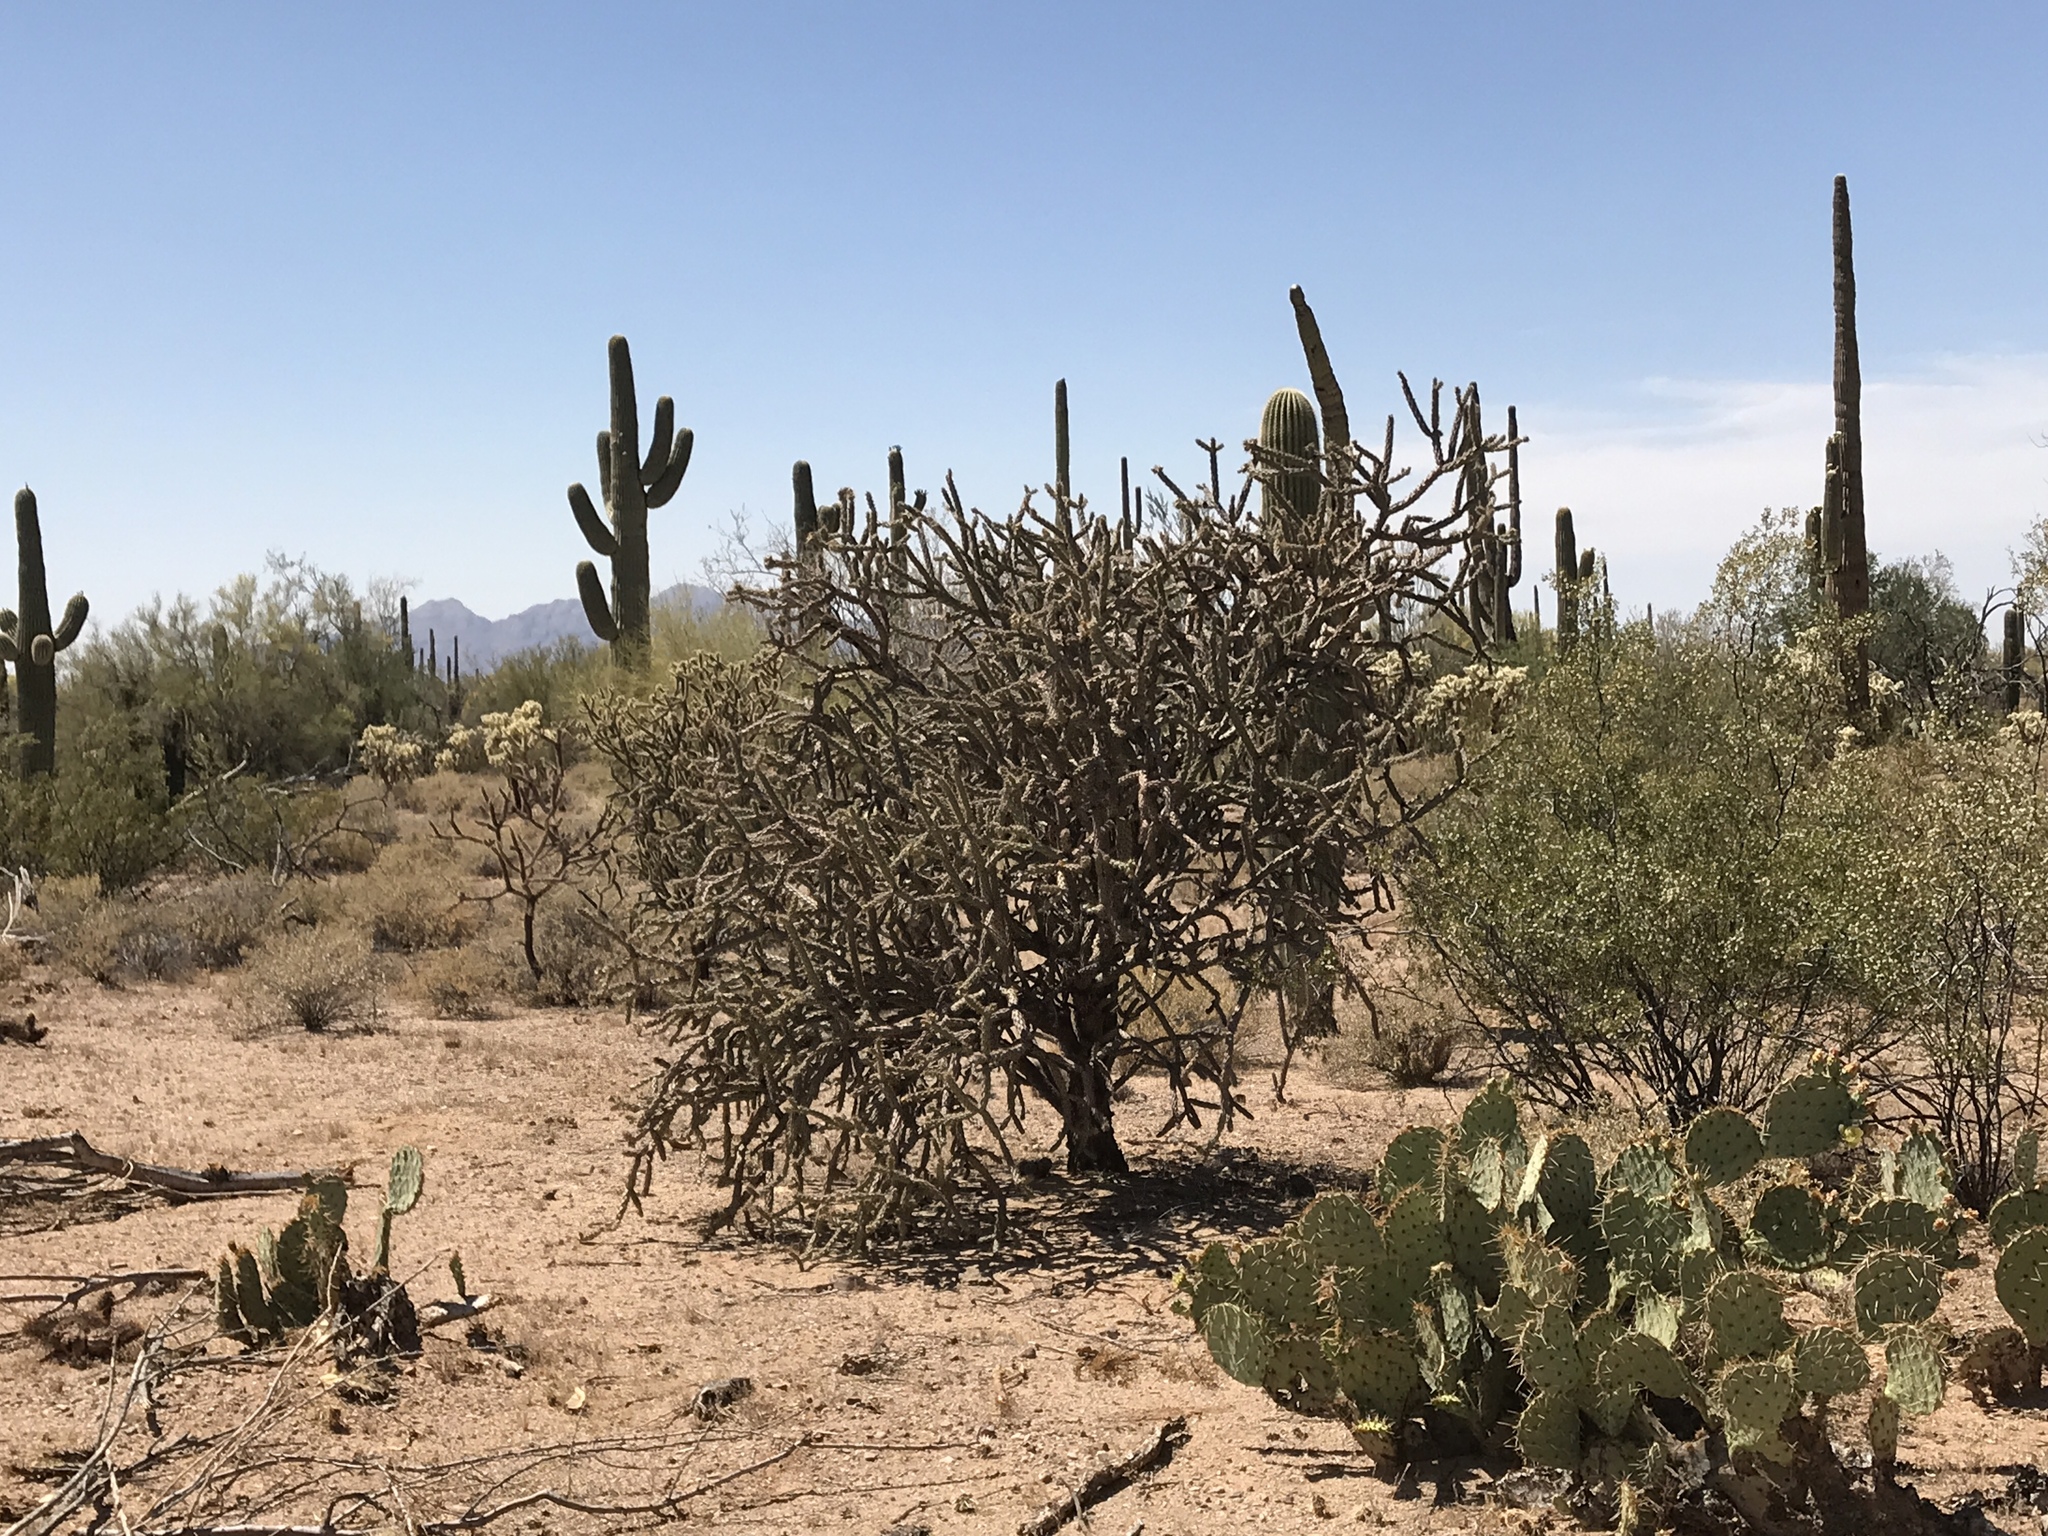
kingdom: Plantae
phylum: Tracheophyta
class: Magnoliopsida
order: Caryophyllales
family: Cactaceae
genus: Cylindropuntia
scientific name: Cylindropuntia thurberi
